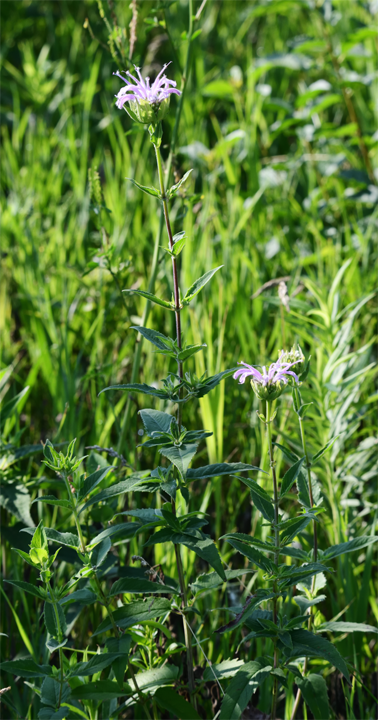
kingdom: Plantae
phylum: Tracheophyta
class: Magnoliopsida
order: Lamiales
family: Lamiaceae
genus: Monarda
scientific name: Monarda fistulosa
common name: Purple beebalm
